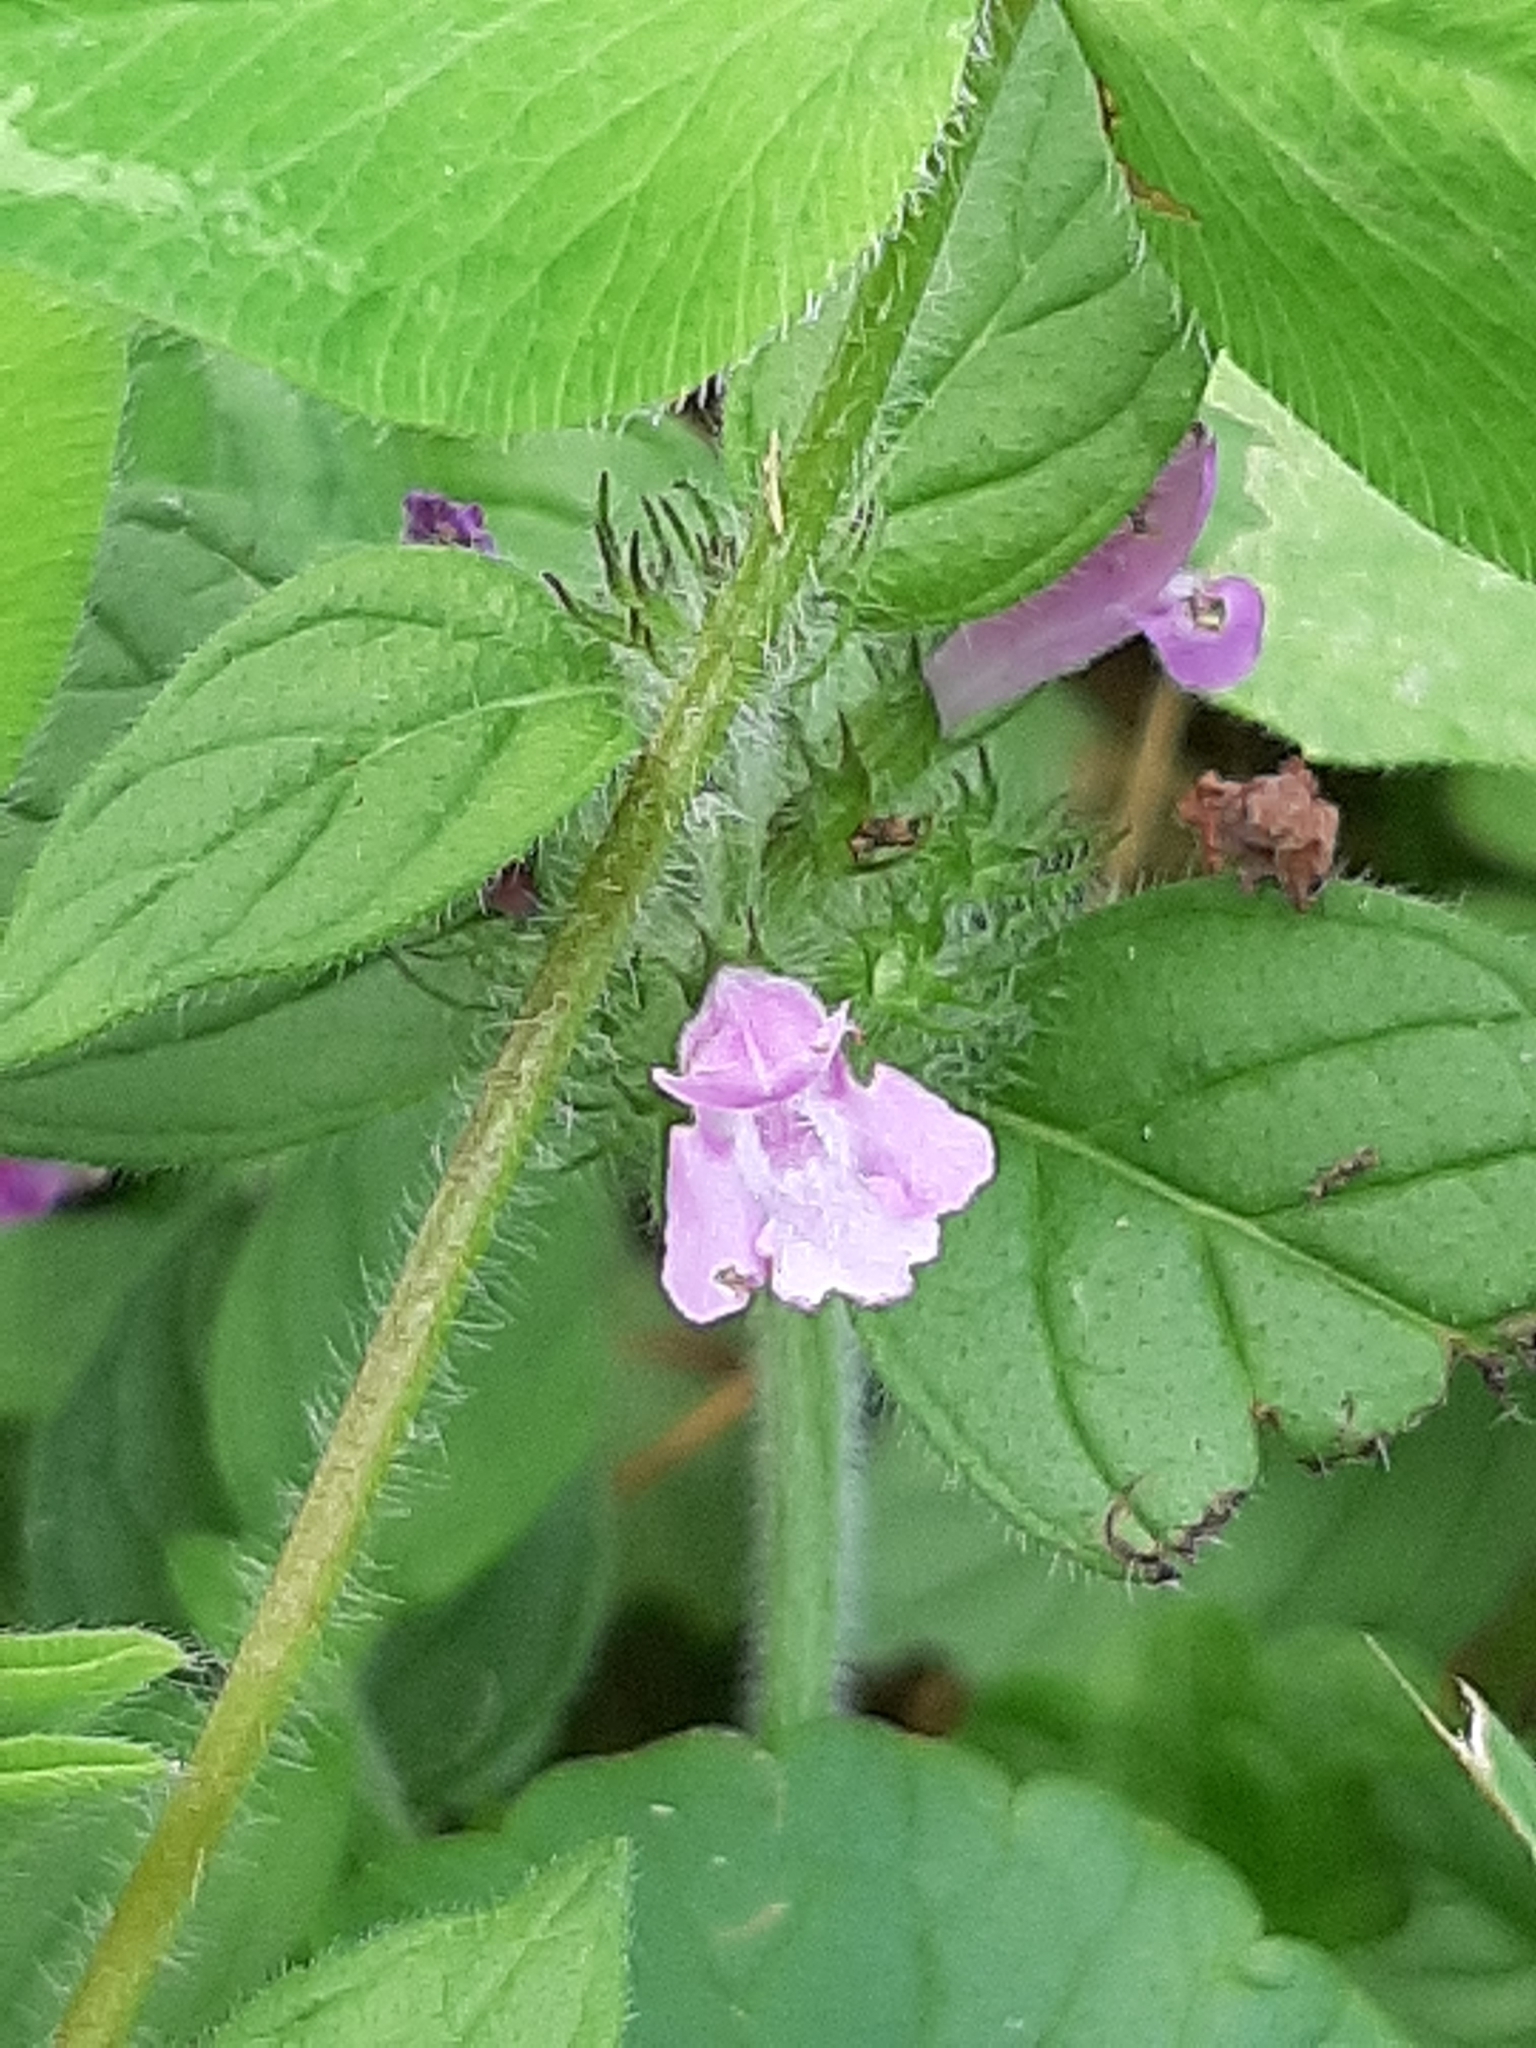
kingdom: Plantae
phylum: Tracheophyta
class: Magnoliopsida
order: Lamiales
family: Lamiaceae
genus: Clinopodium
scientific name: Clinopodium vulgare
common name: Wild basil
